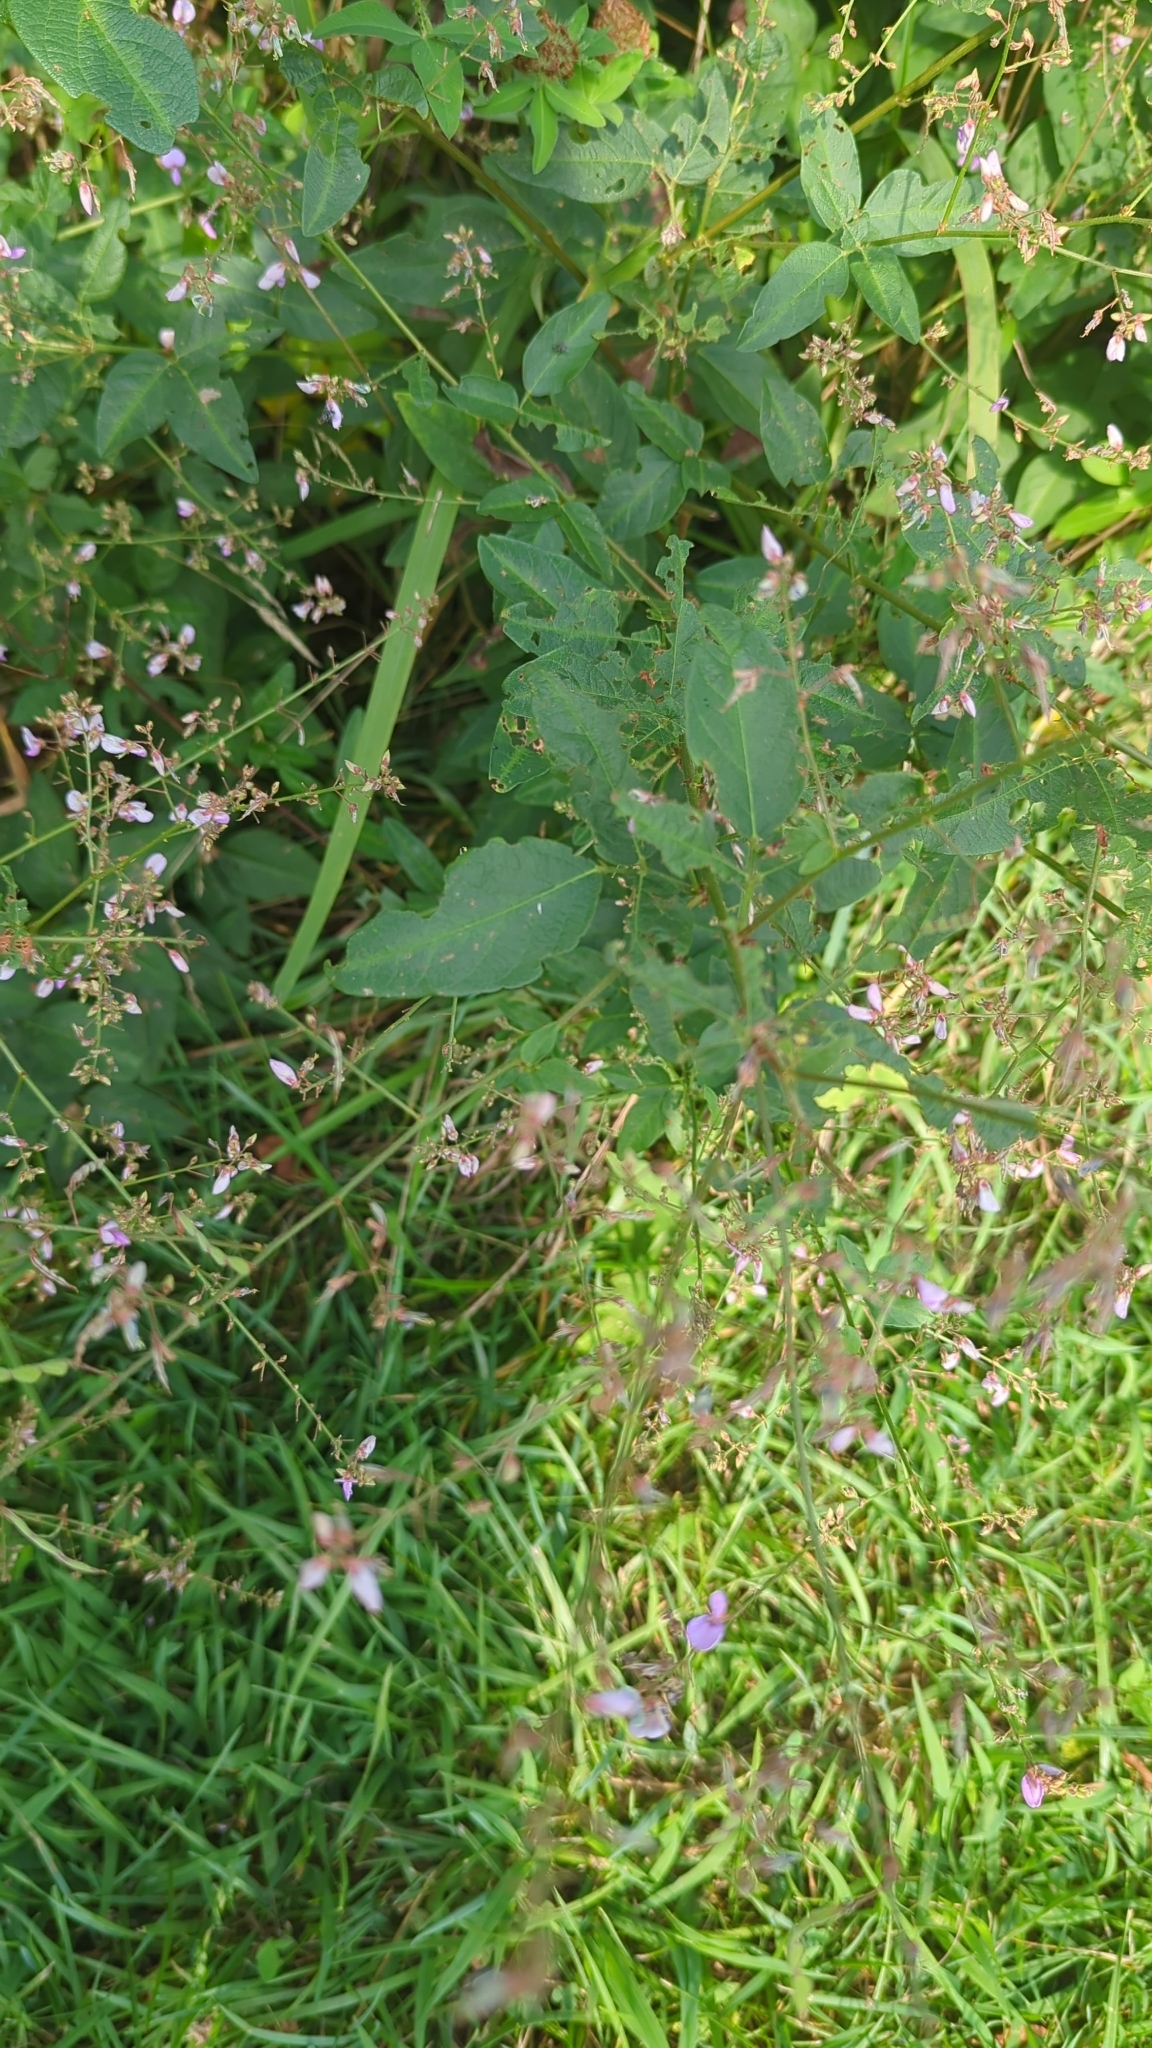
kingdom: Plantae
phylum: Tracheophyta
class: Magnoliopsida
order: Fabales
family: Fabaceae
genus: Desmodium
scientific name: Desmodium paniculatum
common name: Panicled tick-clover
